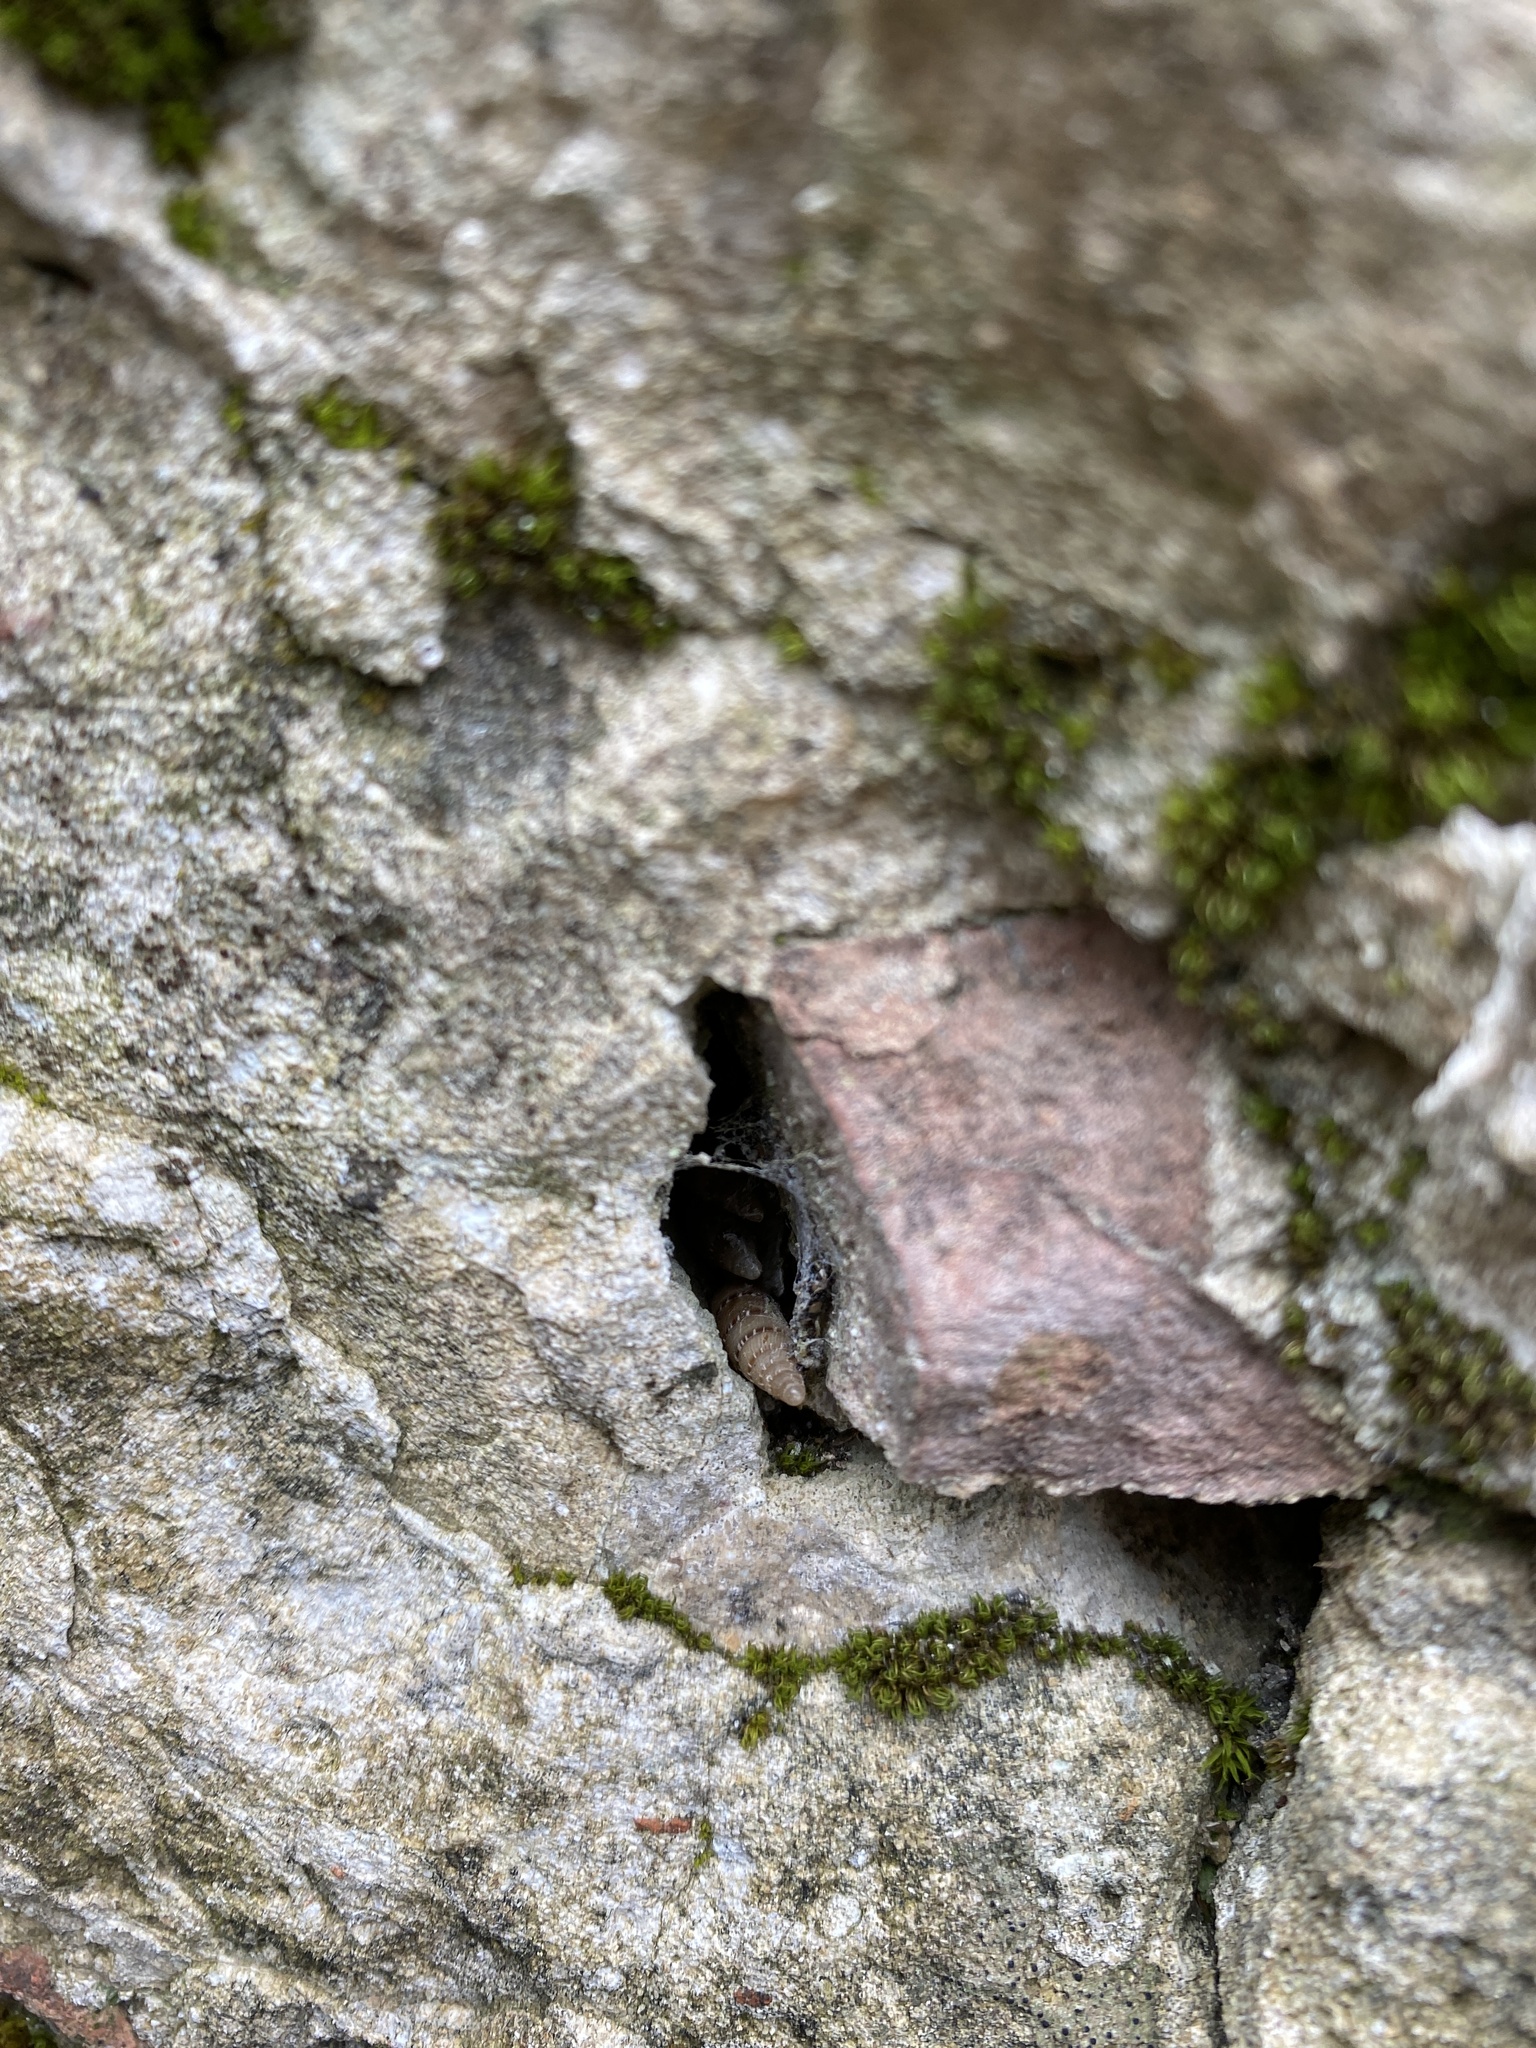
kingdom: Animalia
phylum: Mollusca
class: Gastropoda
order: Stylommatophora
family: Clausiliidae
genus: Papillifera
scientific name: Papillifera papillaris
